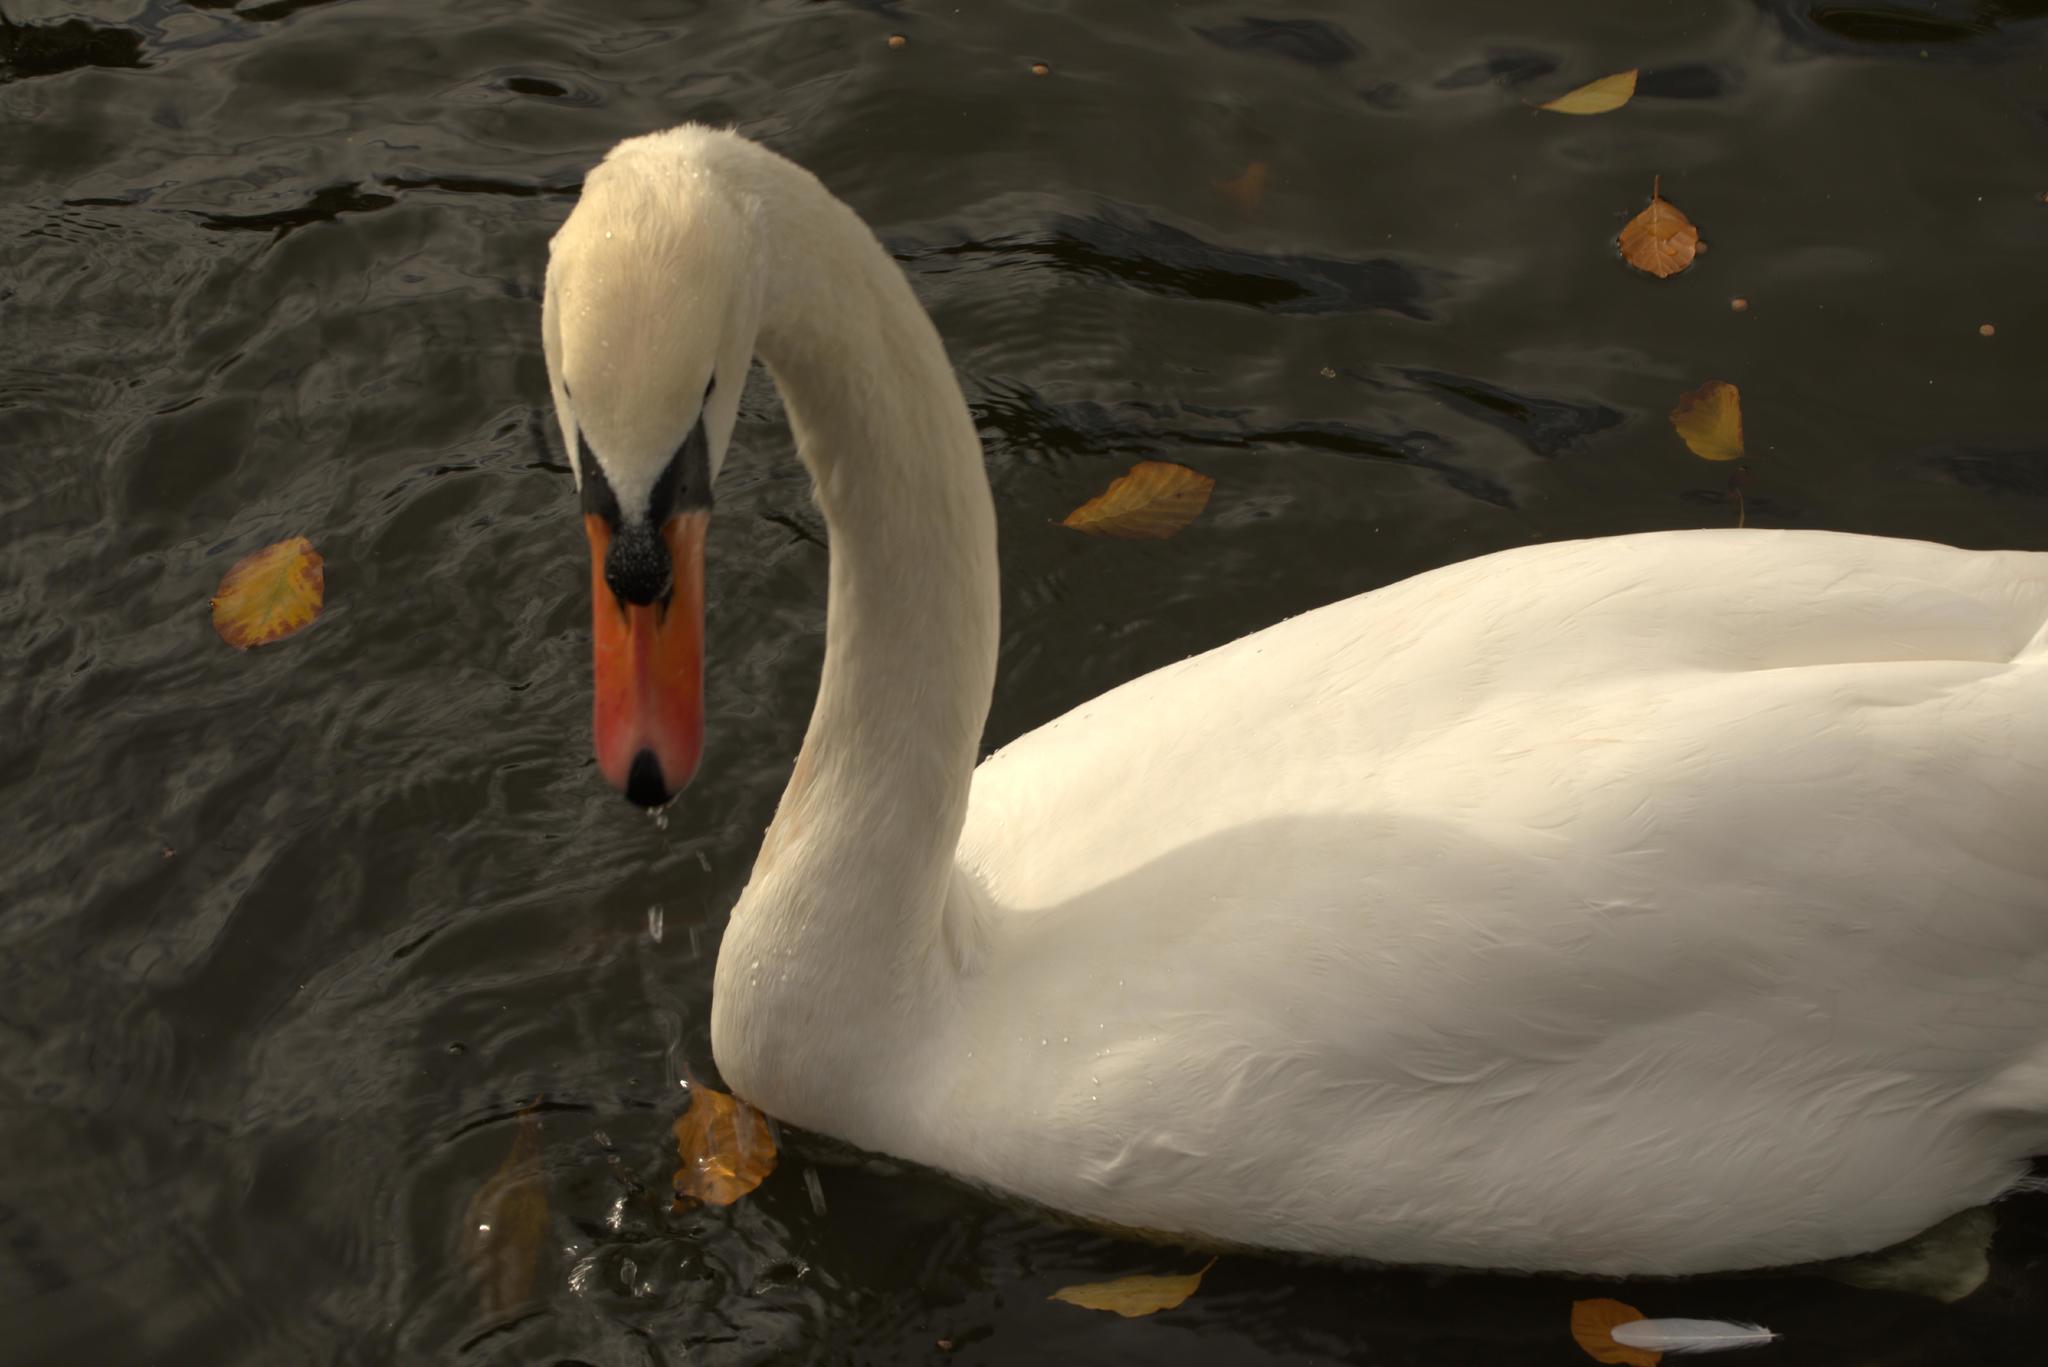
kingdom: Animalia
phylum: Chordata
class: Aves
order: Anseriformes
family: Anatidae
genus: Cygnus
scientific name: Cygnus olor
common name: Mute swan
